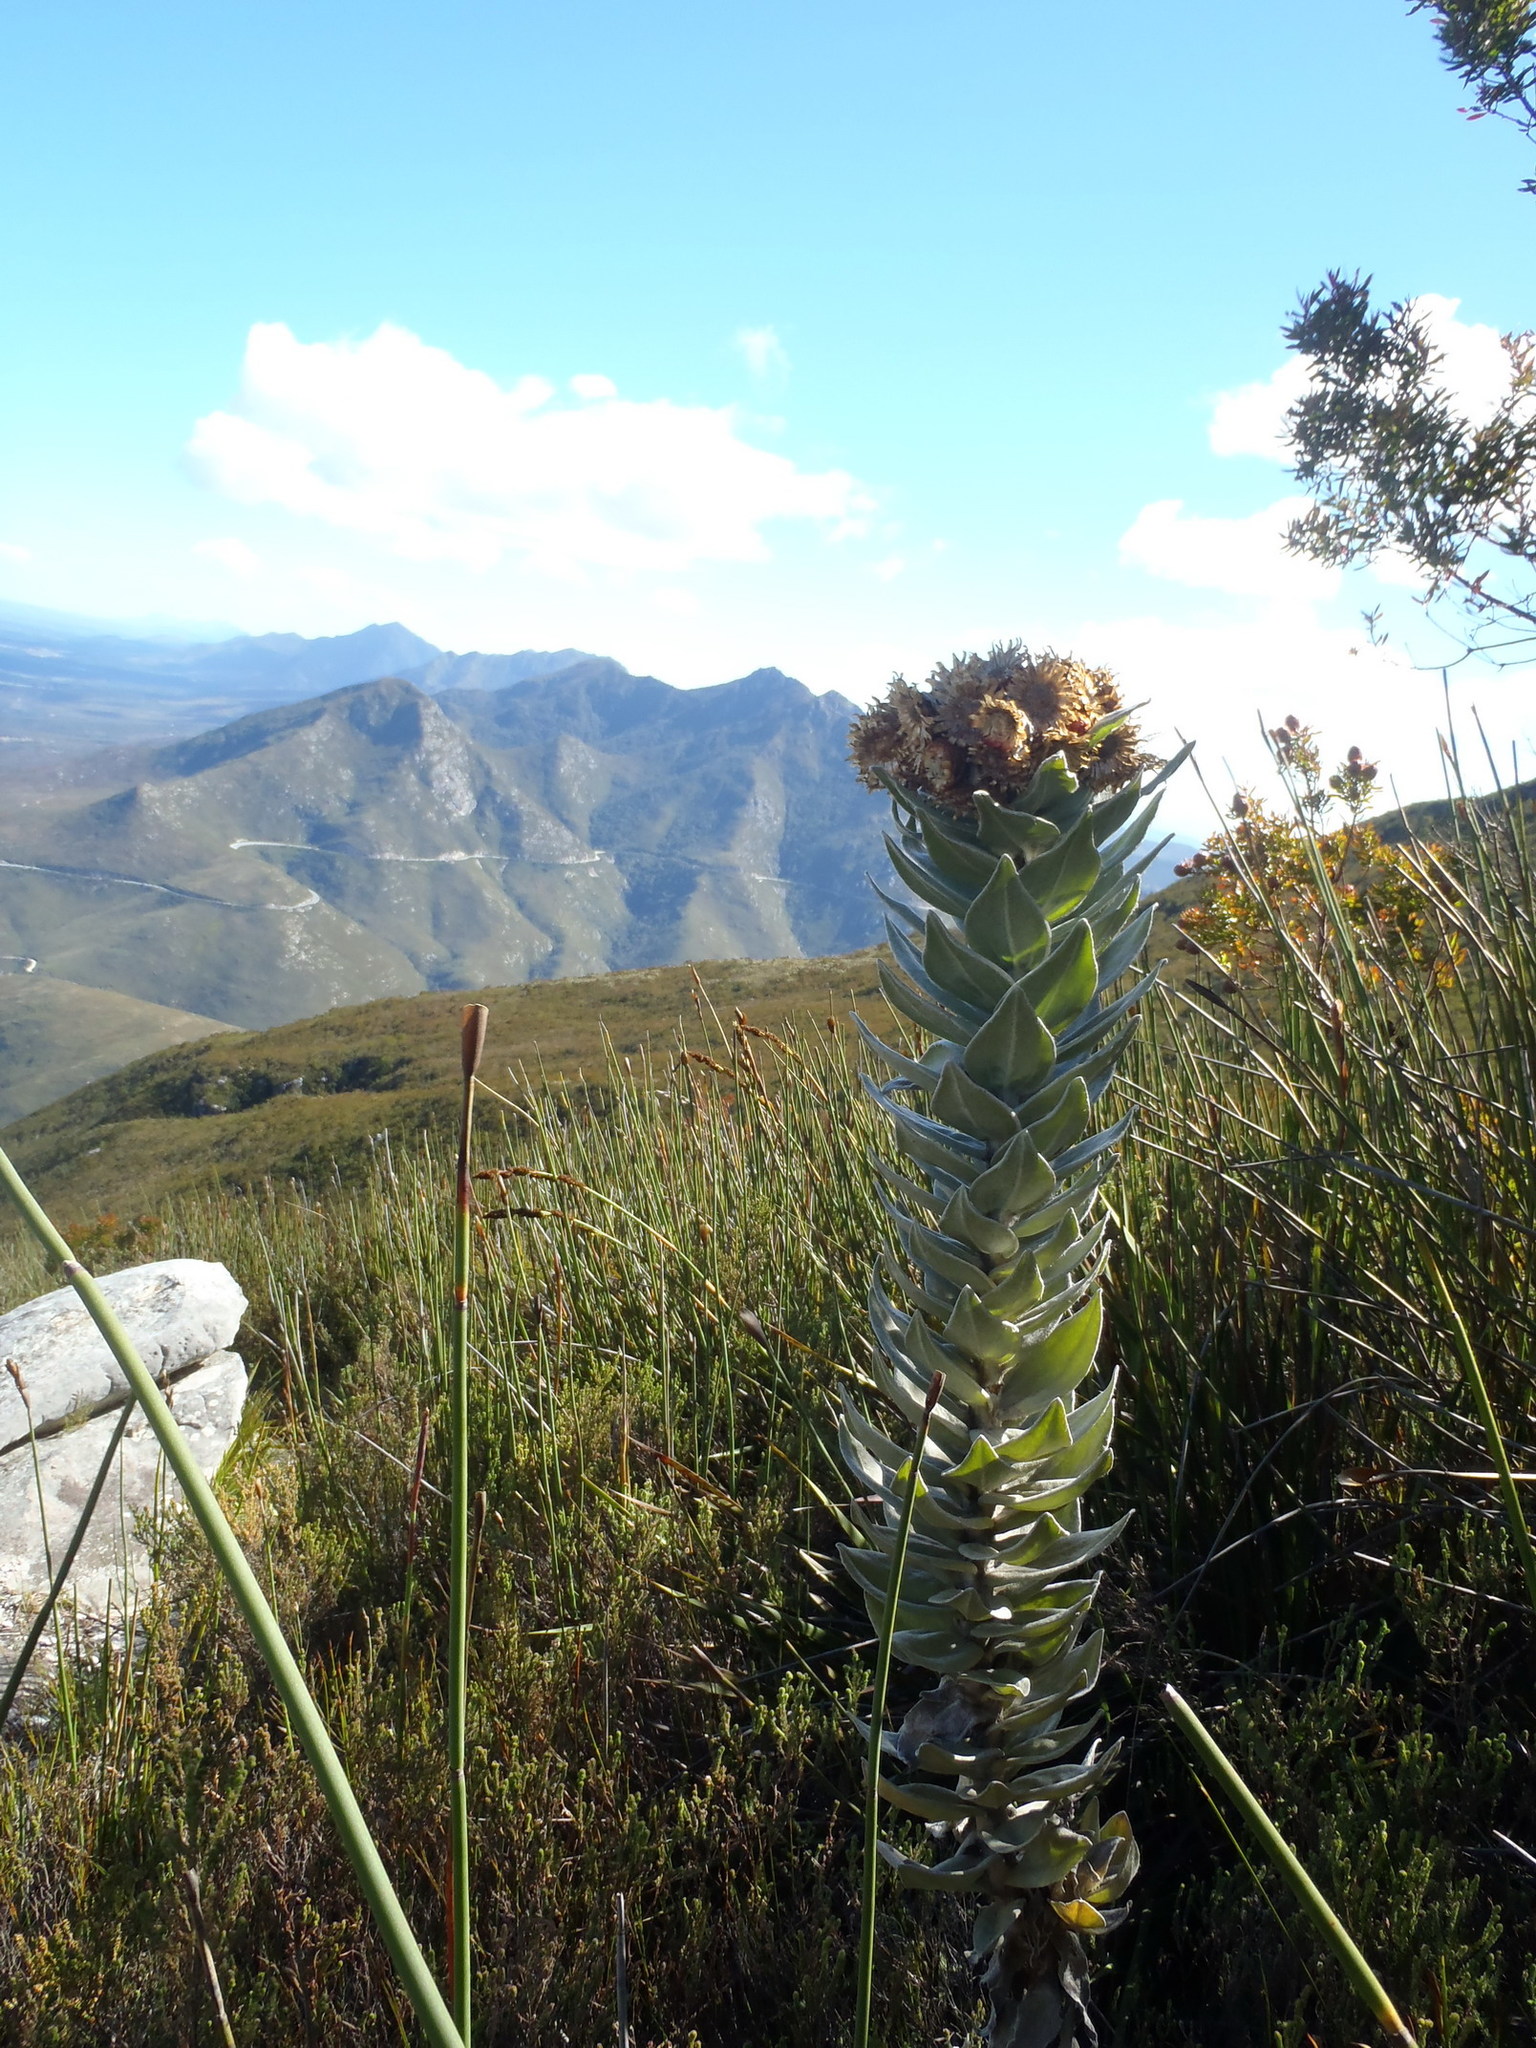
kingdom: Plantae
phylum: Tracheophyta
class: Magnoliopsida
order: Asterales
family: Asteraceae
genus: Syncarpha
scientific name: Syncarpha eximia
